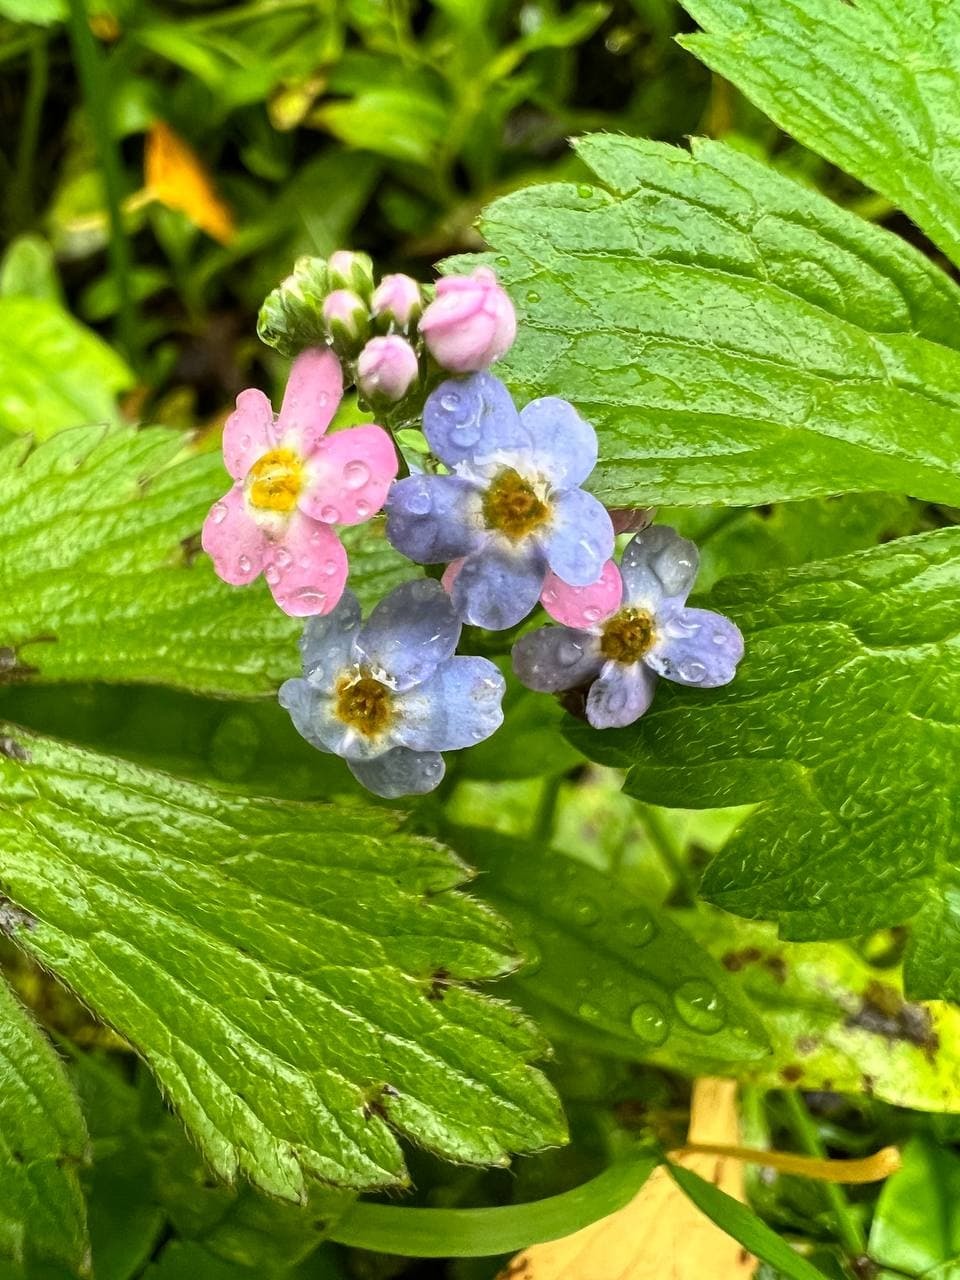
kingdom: Plantae
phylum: Tracheophyta
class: Magnoliopsida
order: Boraginales
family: Boraginaceae
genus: Myosotis
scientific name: Myosotis scorpioides
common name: Water forget-me-not
